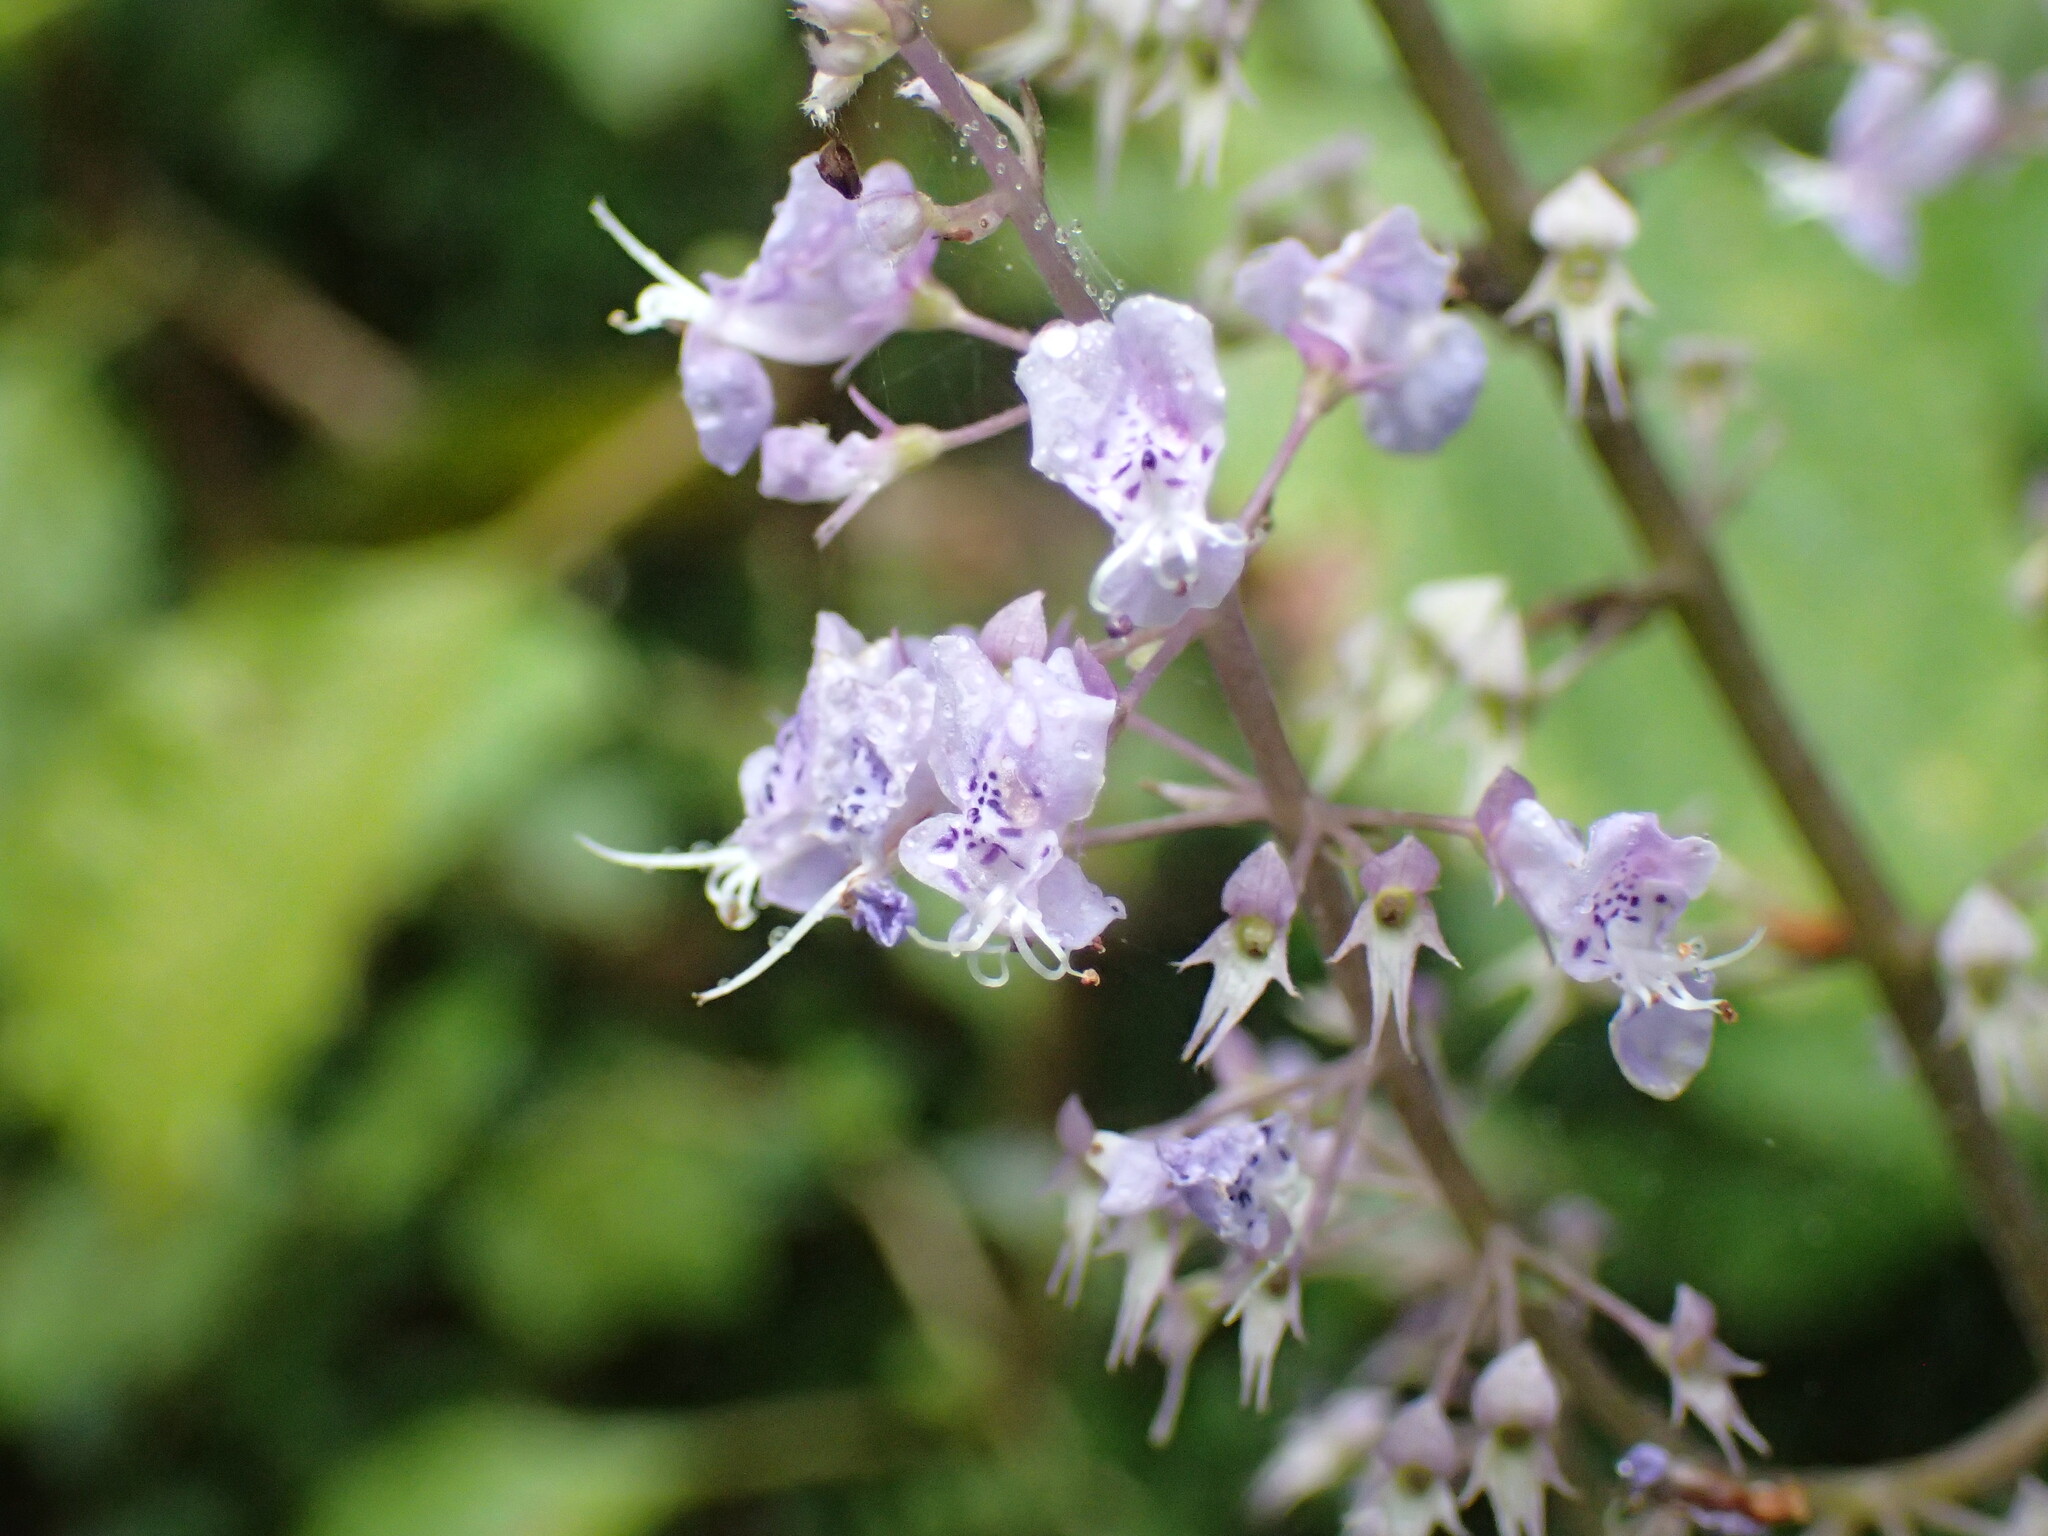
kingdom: Plantae
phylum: Tracheophyta
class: Magnoliopsida
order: Lamiales
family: Lamiaceae
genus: Plectranthus
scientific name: Plectranthus fruticosus
